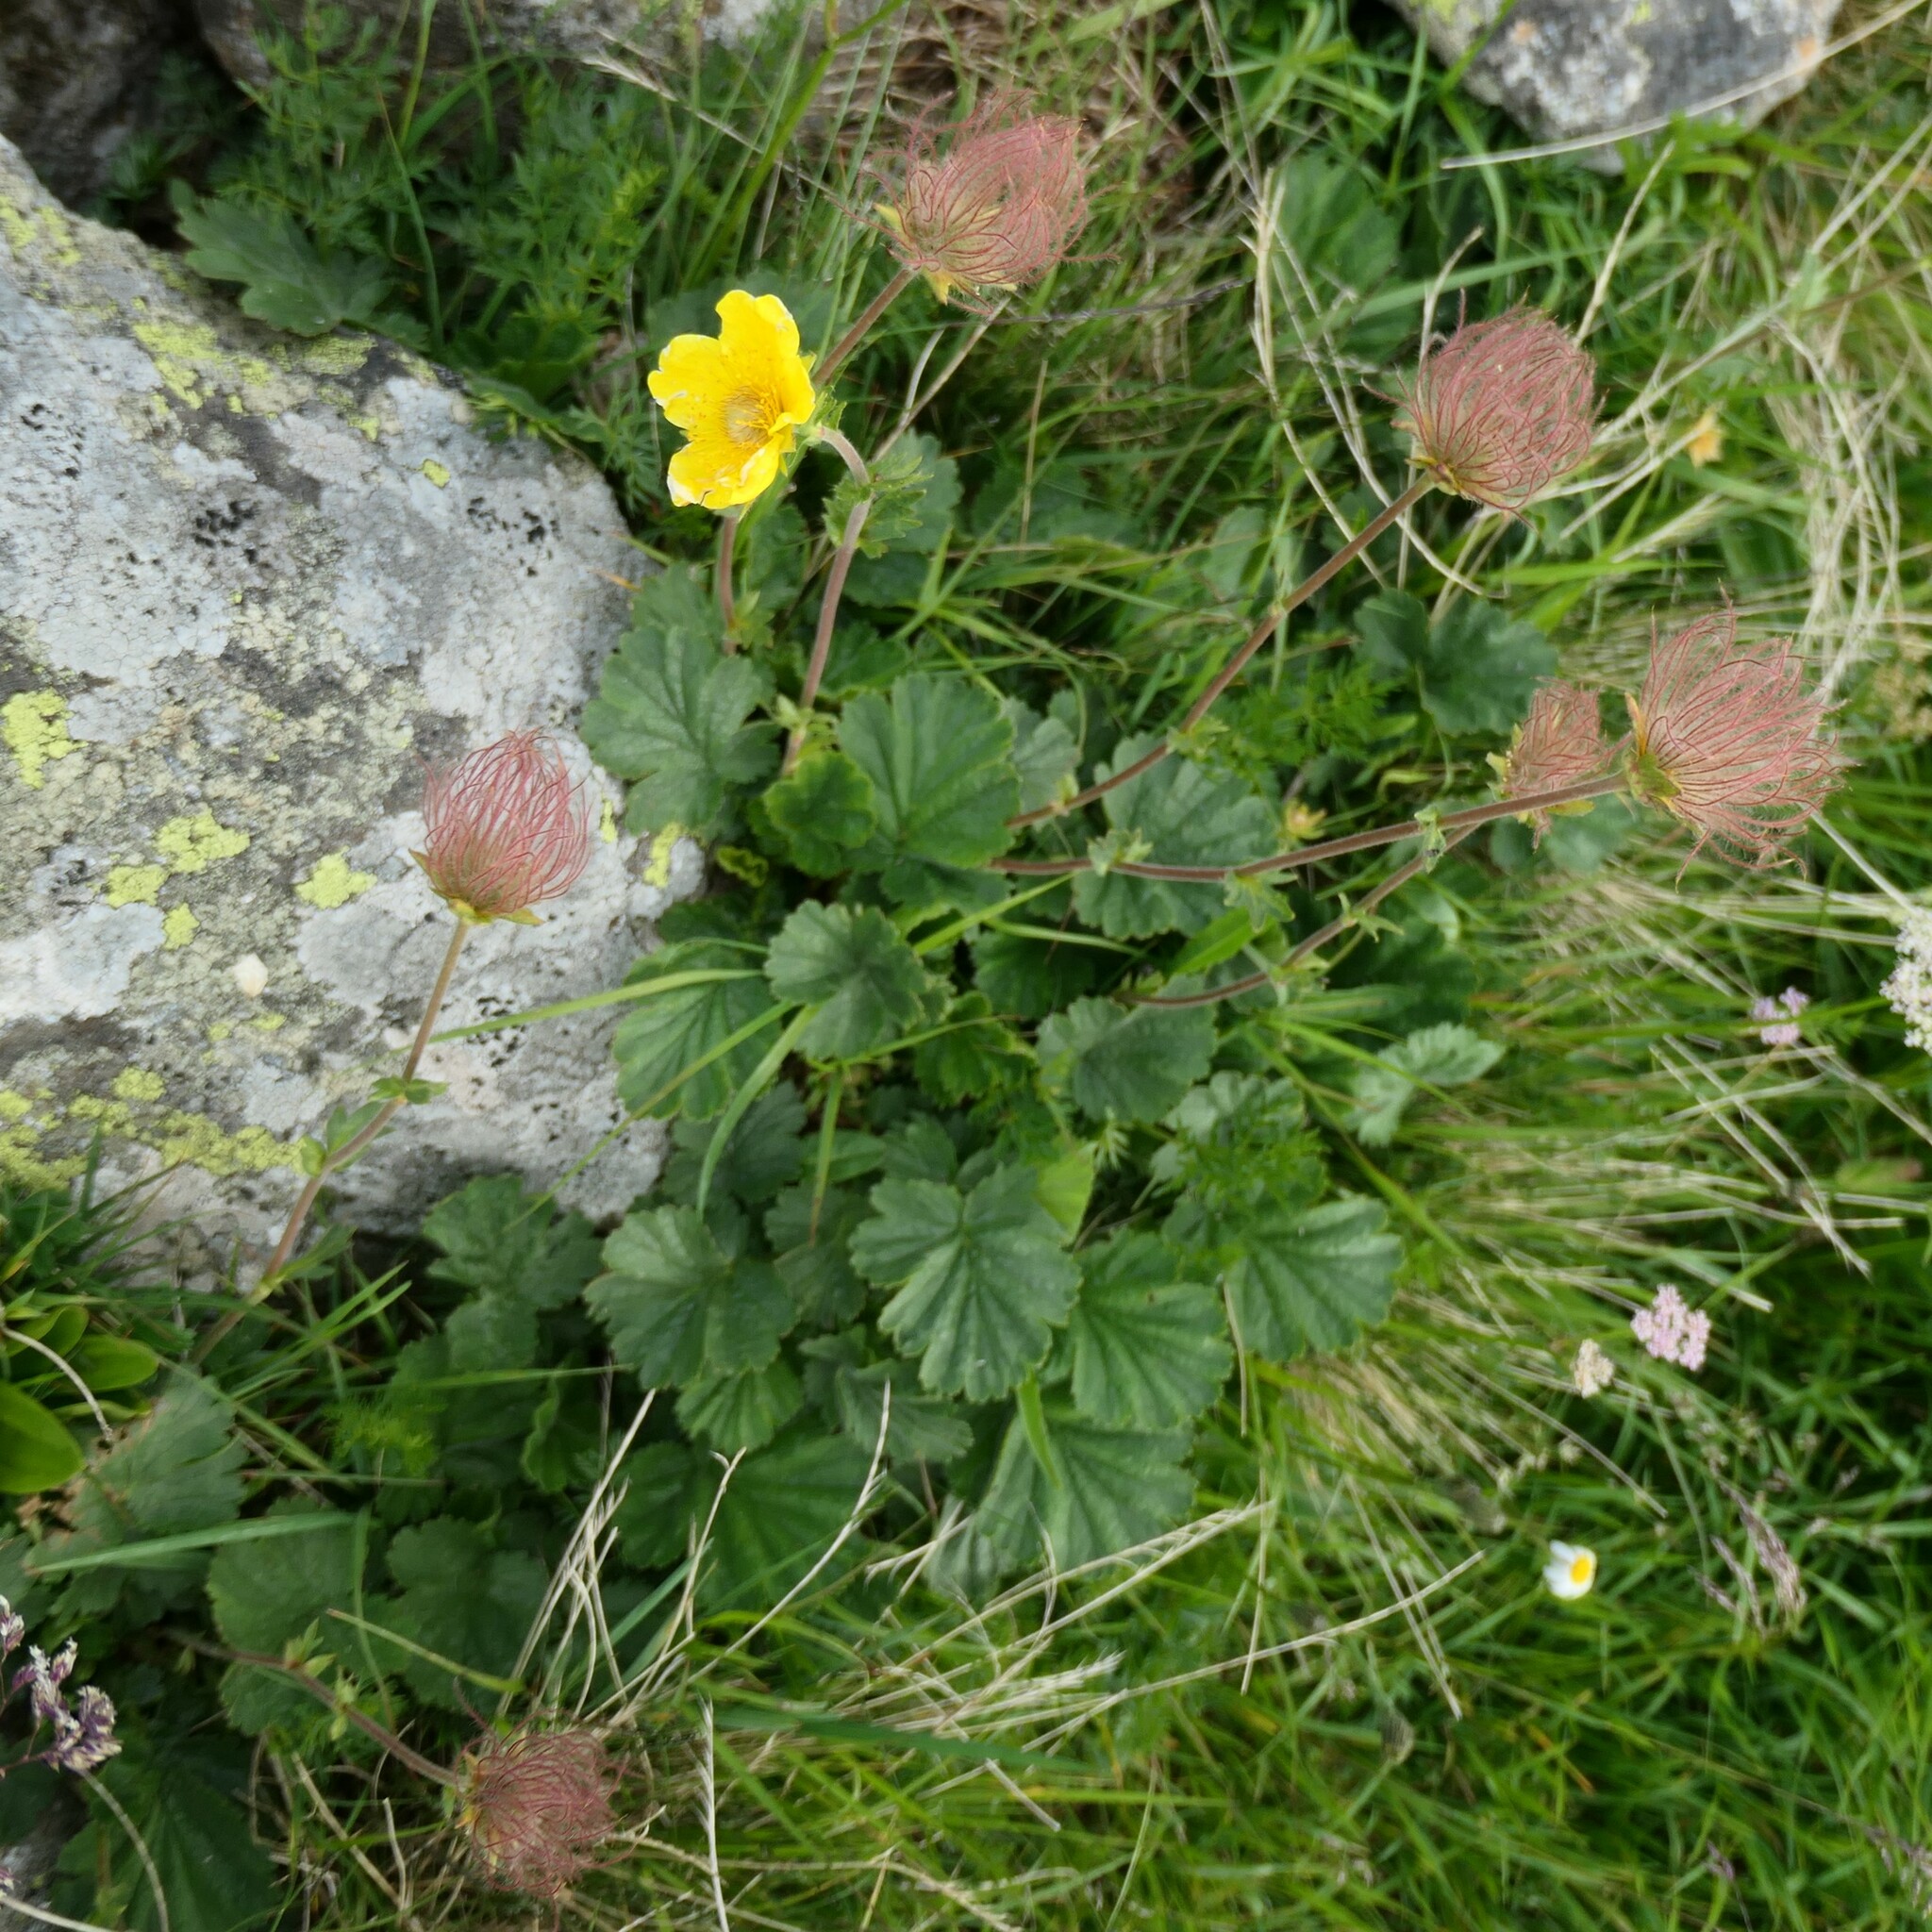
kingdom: Plantae
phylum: Tracheophyta
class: Magnoliopsida
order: Rosales
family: Rosaceae
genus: Geum
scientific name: Geum montanum
